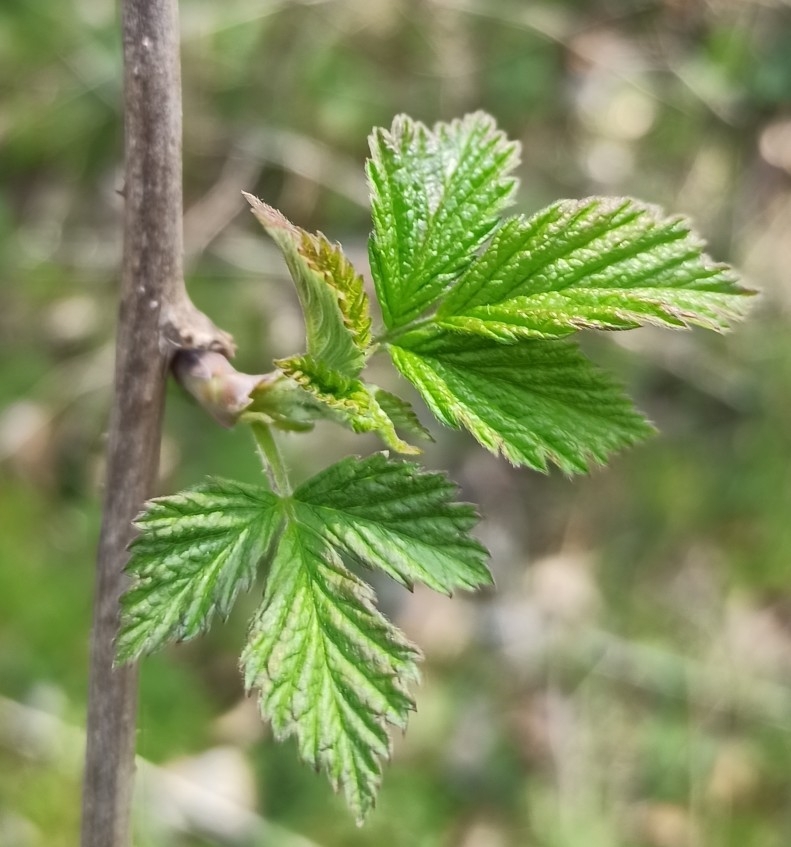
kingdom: Plantae
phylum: Tracheophyta
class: Magnoliopsida
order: Rosales
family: Rosaceae
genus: Rubus
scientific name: Rubus idaeus
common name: Raspberry
